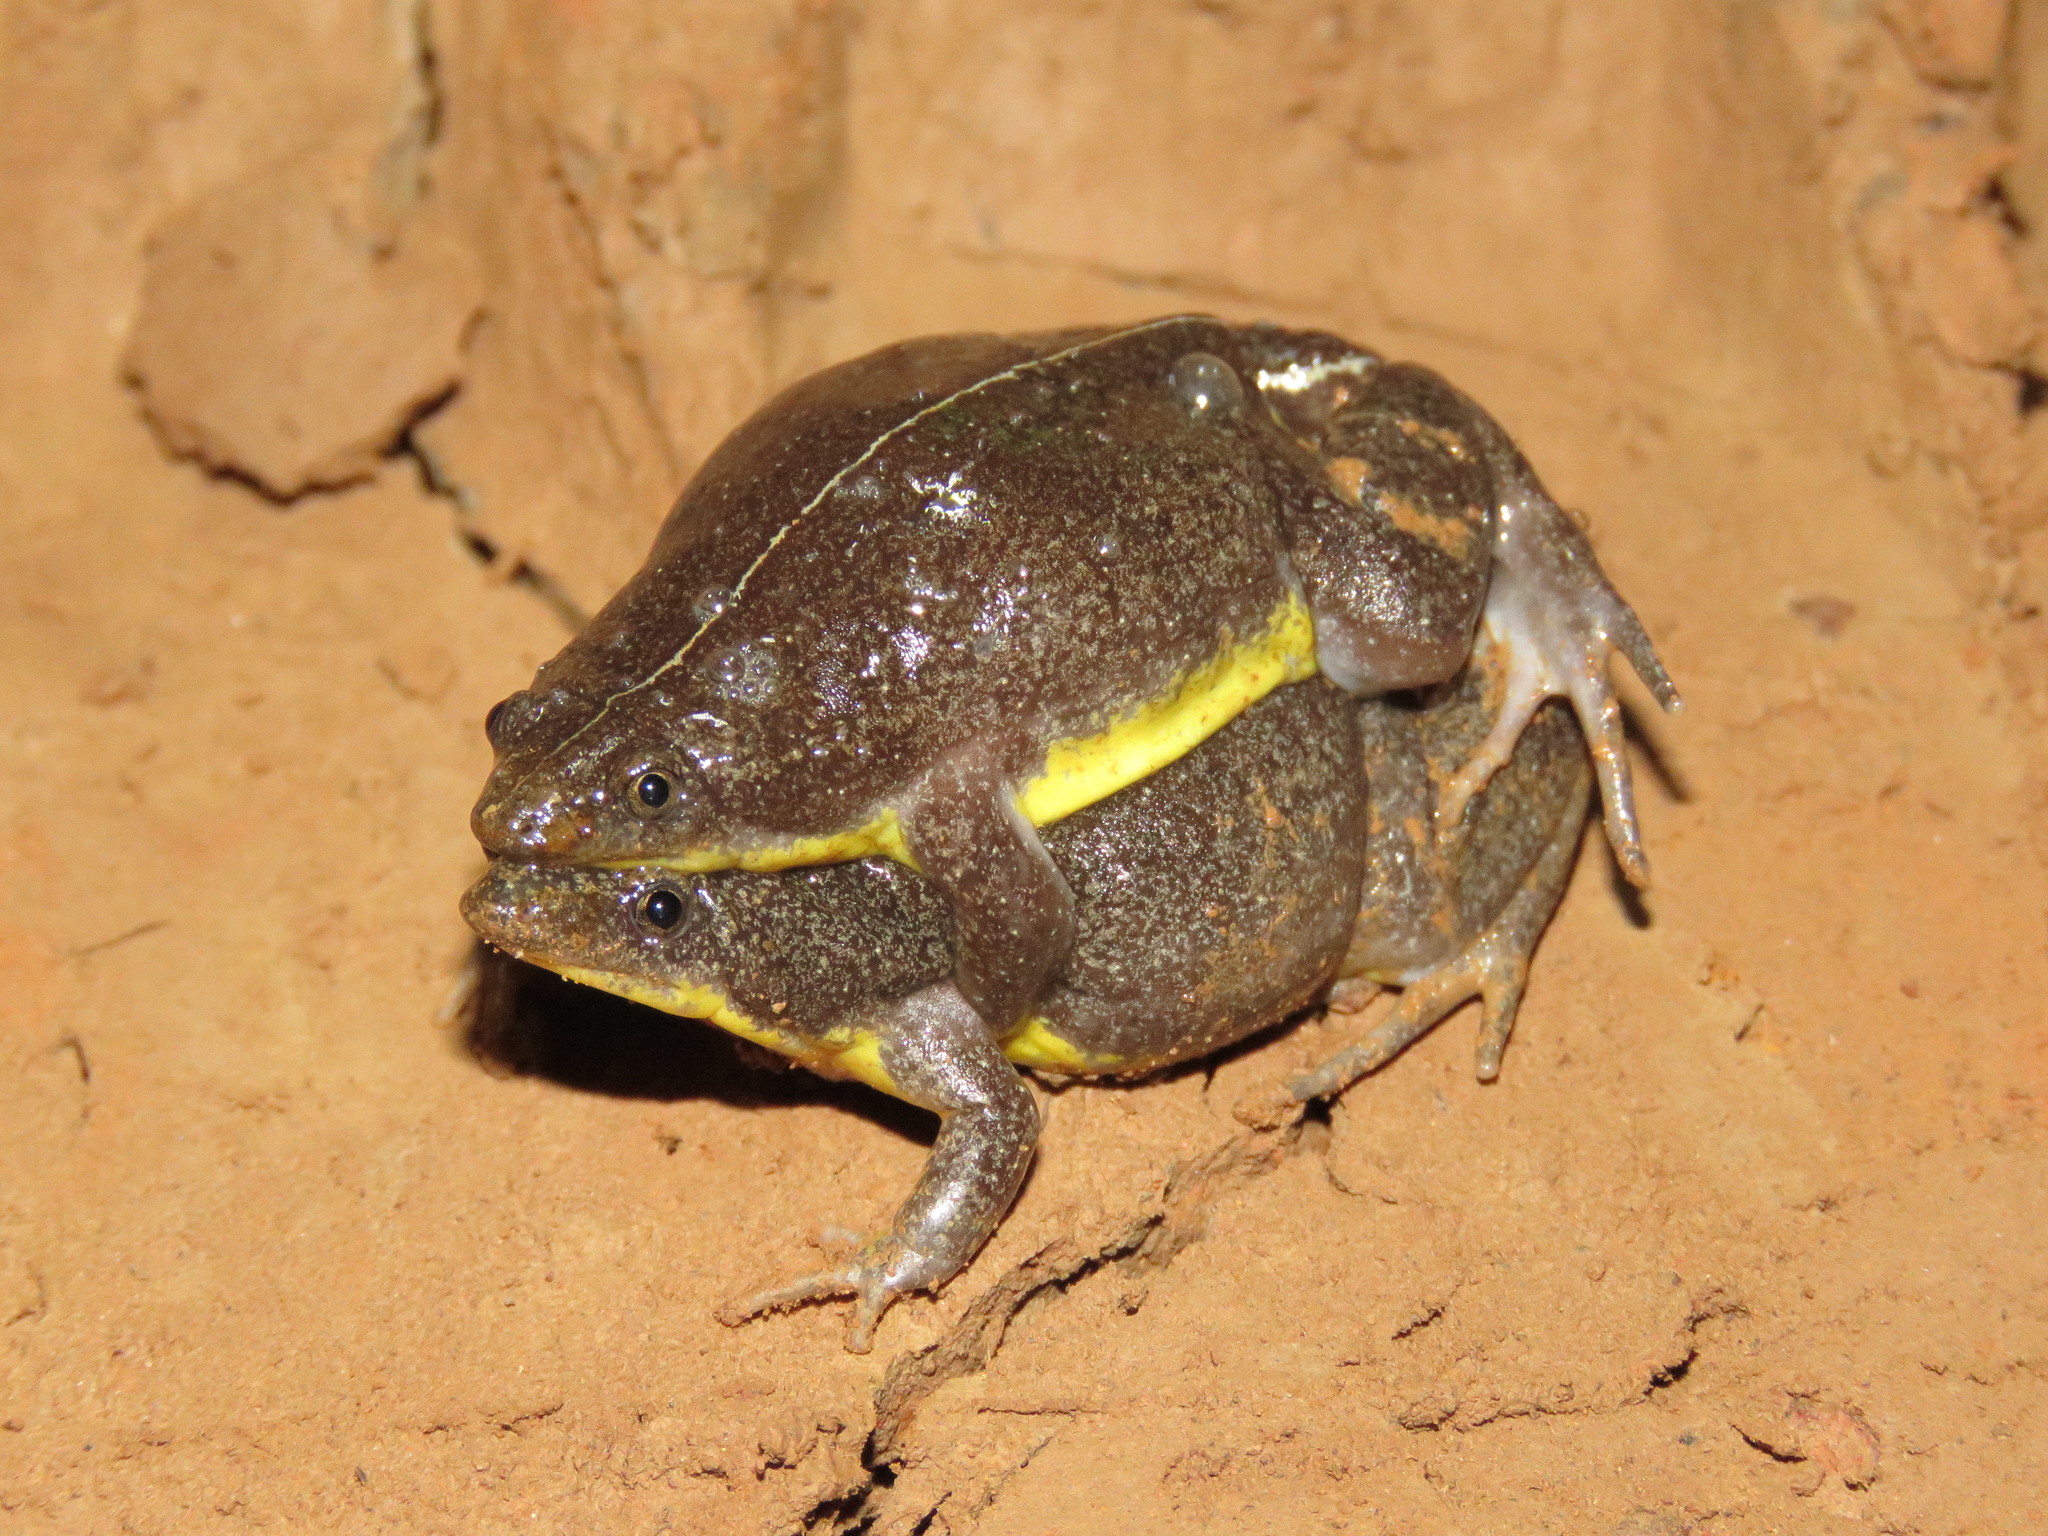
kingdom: Animalia
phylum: Chordata
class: Amphibia
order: Anura
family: Microhylidae
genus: Elachistocleis
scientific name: Elachistocleis helianneae
